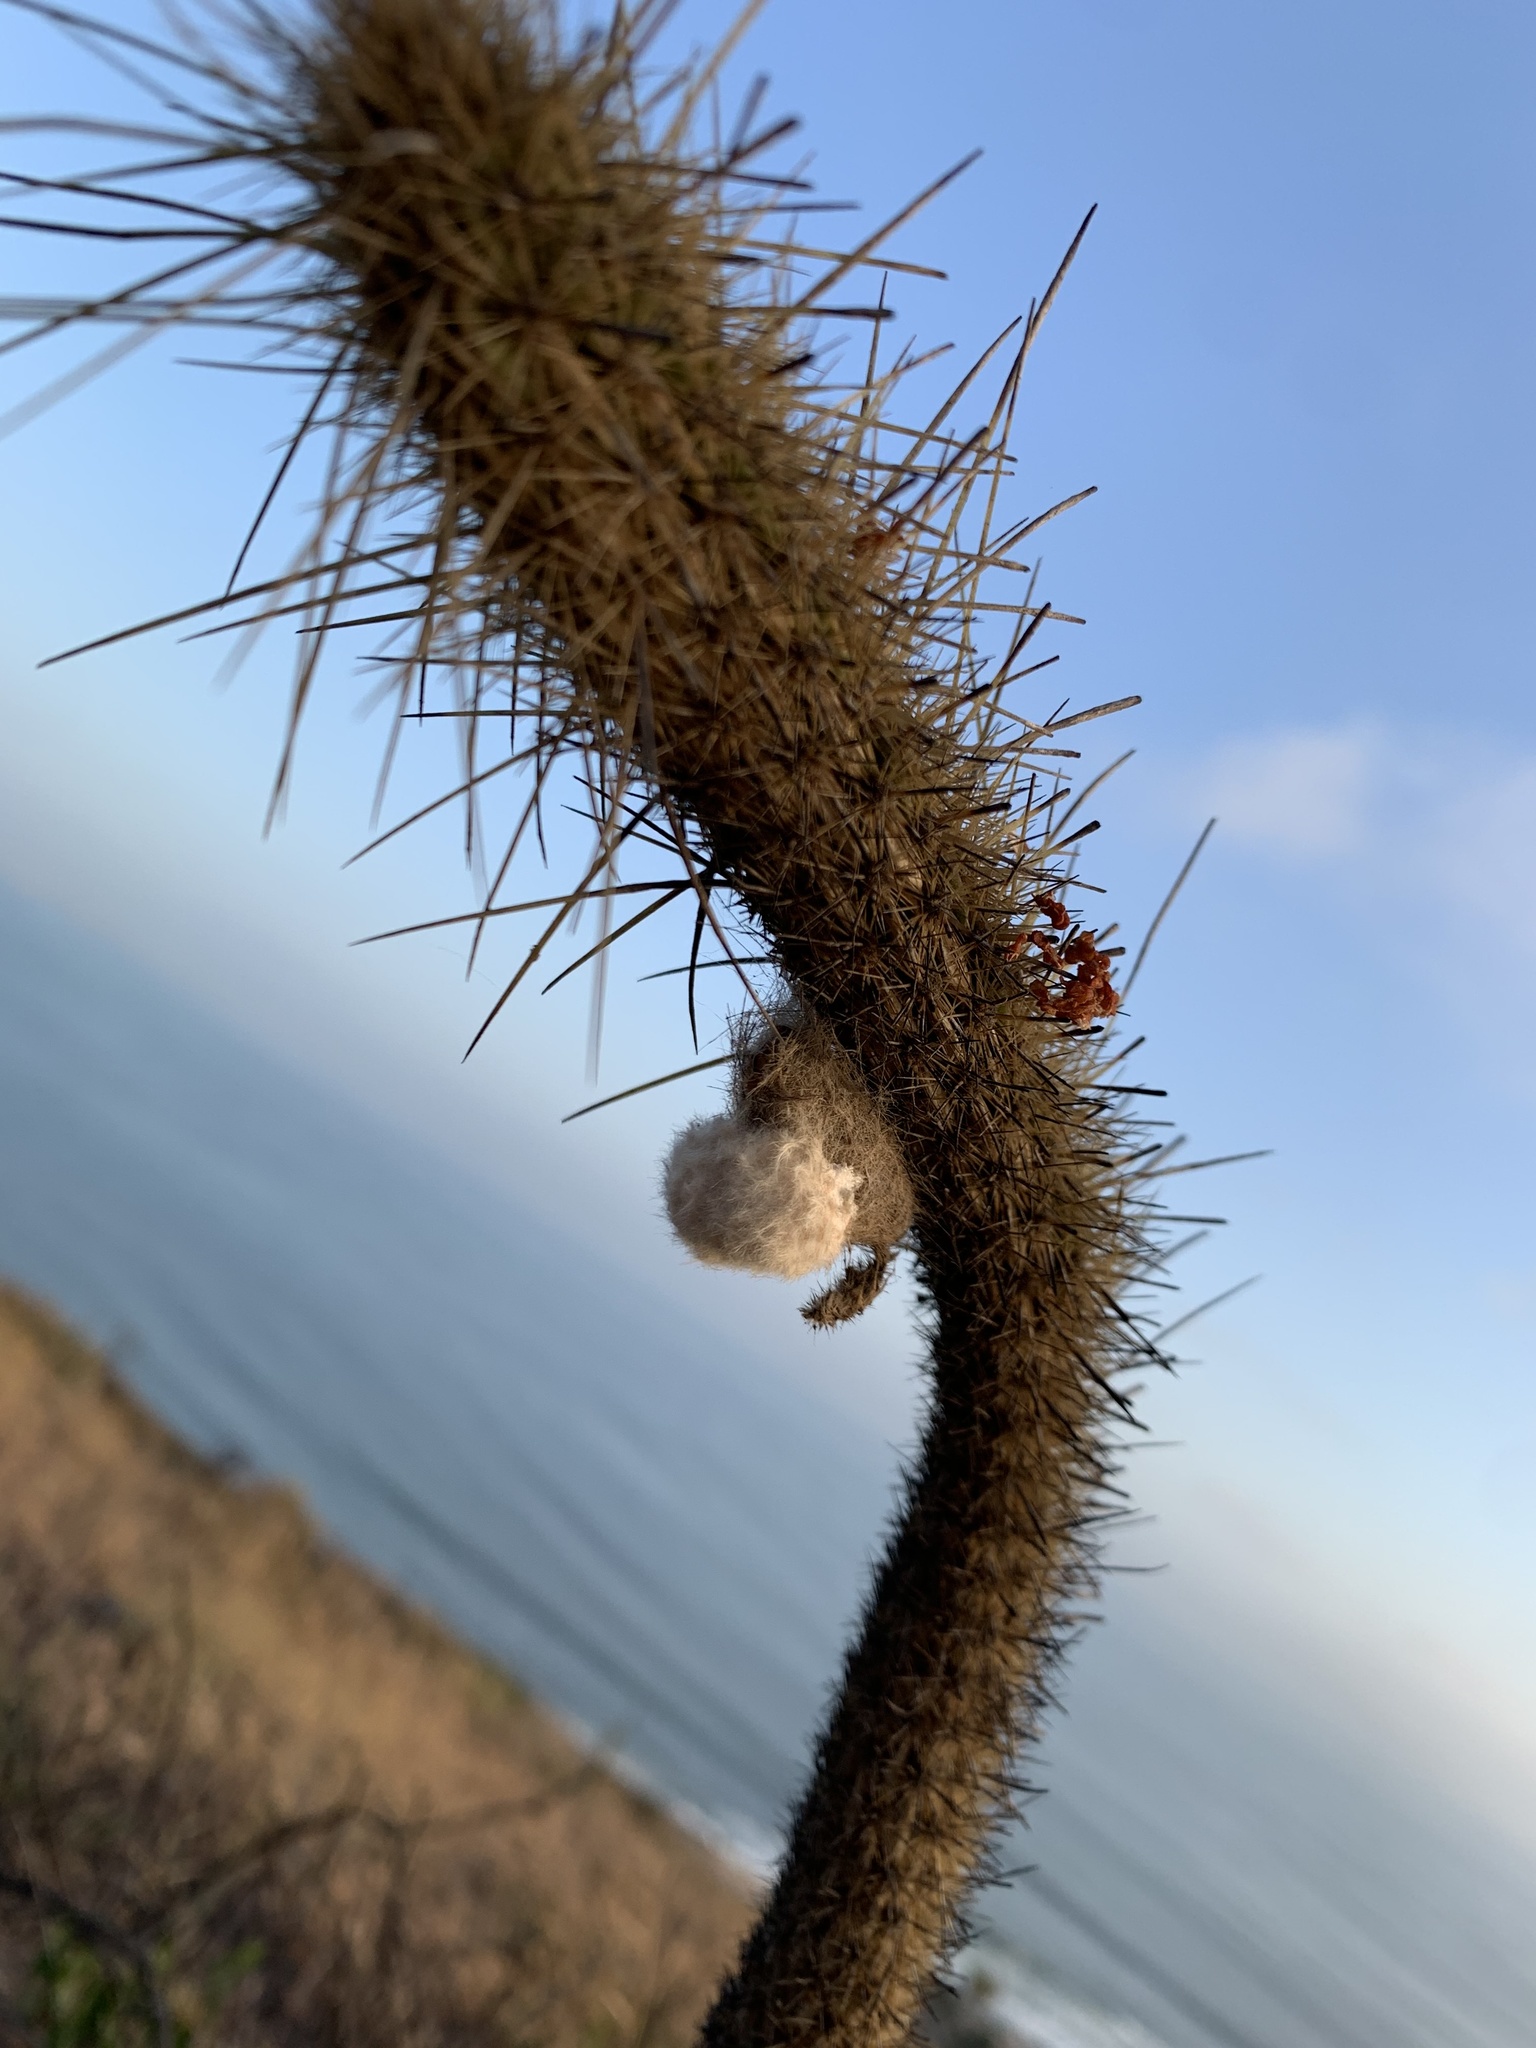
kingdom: Plantae
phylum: Tracheophyta
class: Magnoliopsida
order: Caryophyllales
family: Cactaceae
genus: Bergerocactus
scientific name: Bergerocactus emoryi
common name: Golden snakecactus
